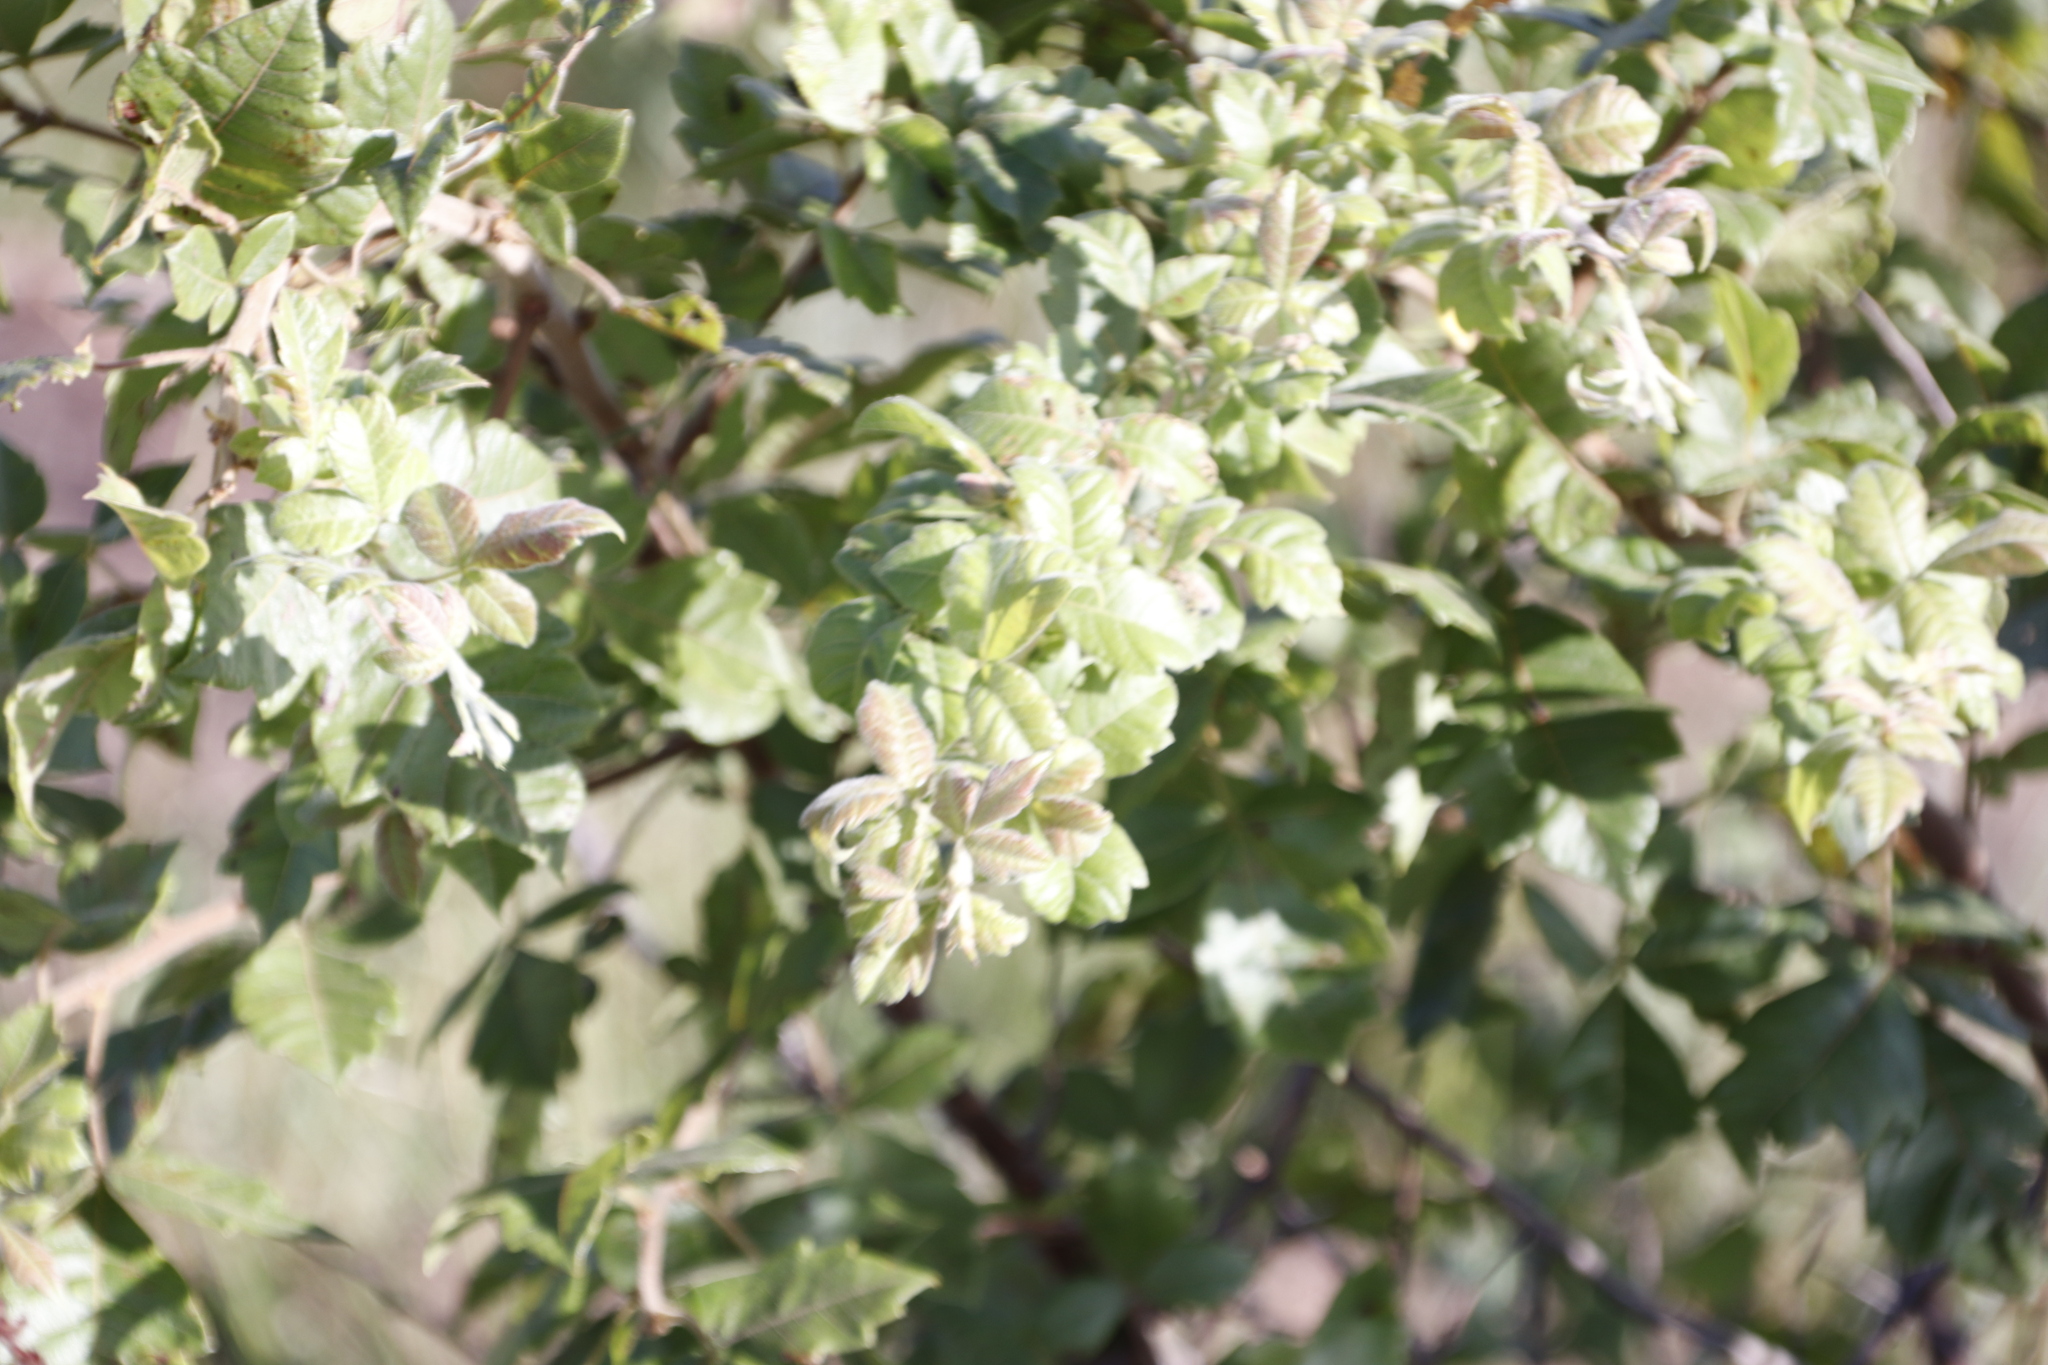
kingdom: Plantae
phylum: Tracheophyta
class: Magnoliopsida
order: Sapindales
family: Anacardiaceae
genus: Searsia
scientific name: Searsia dentata
